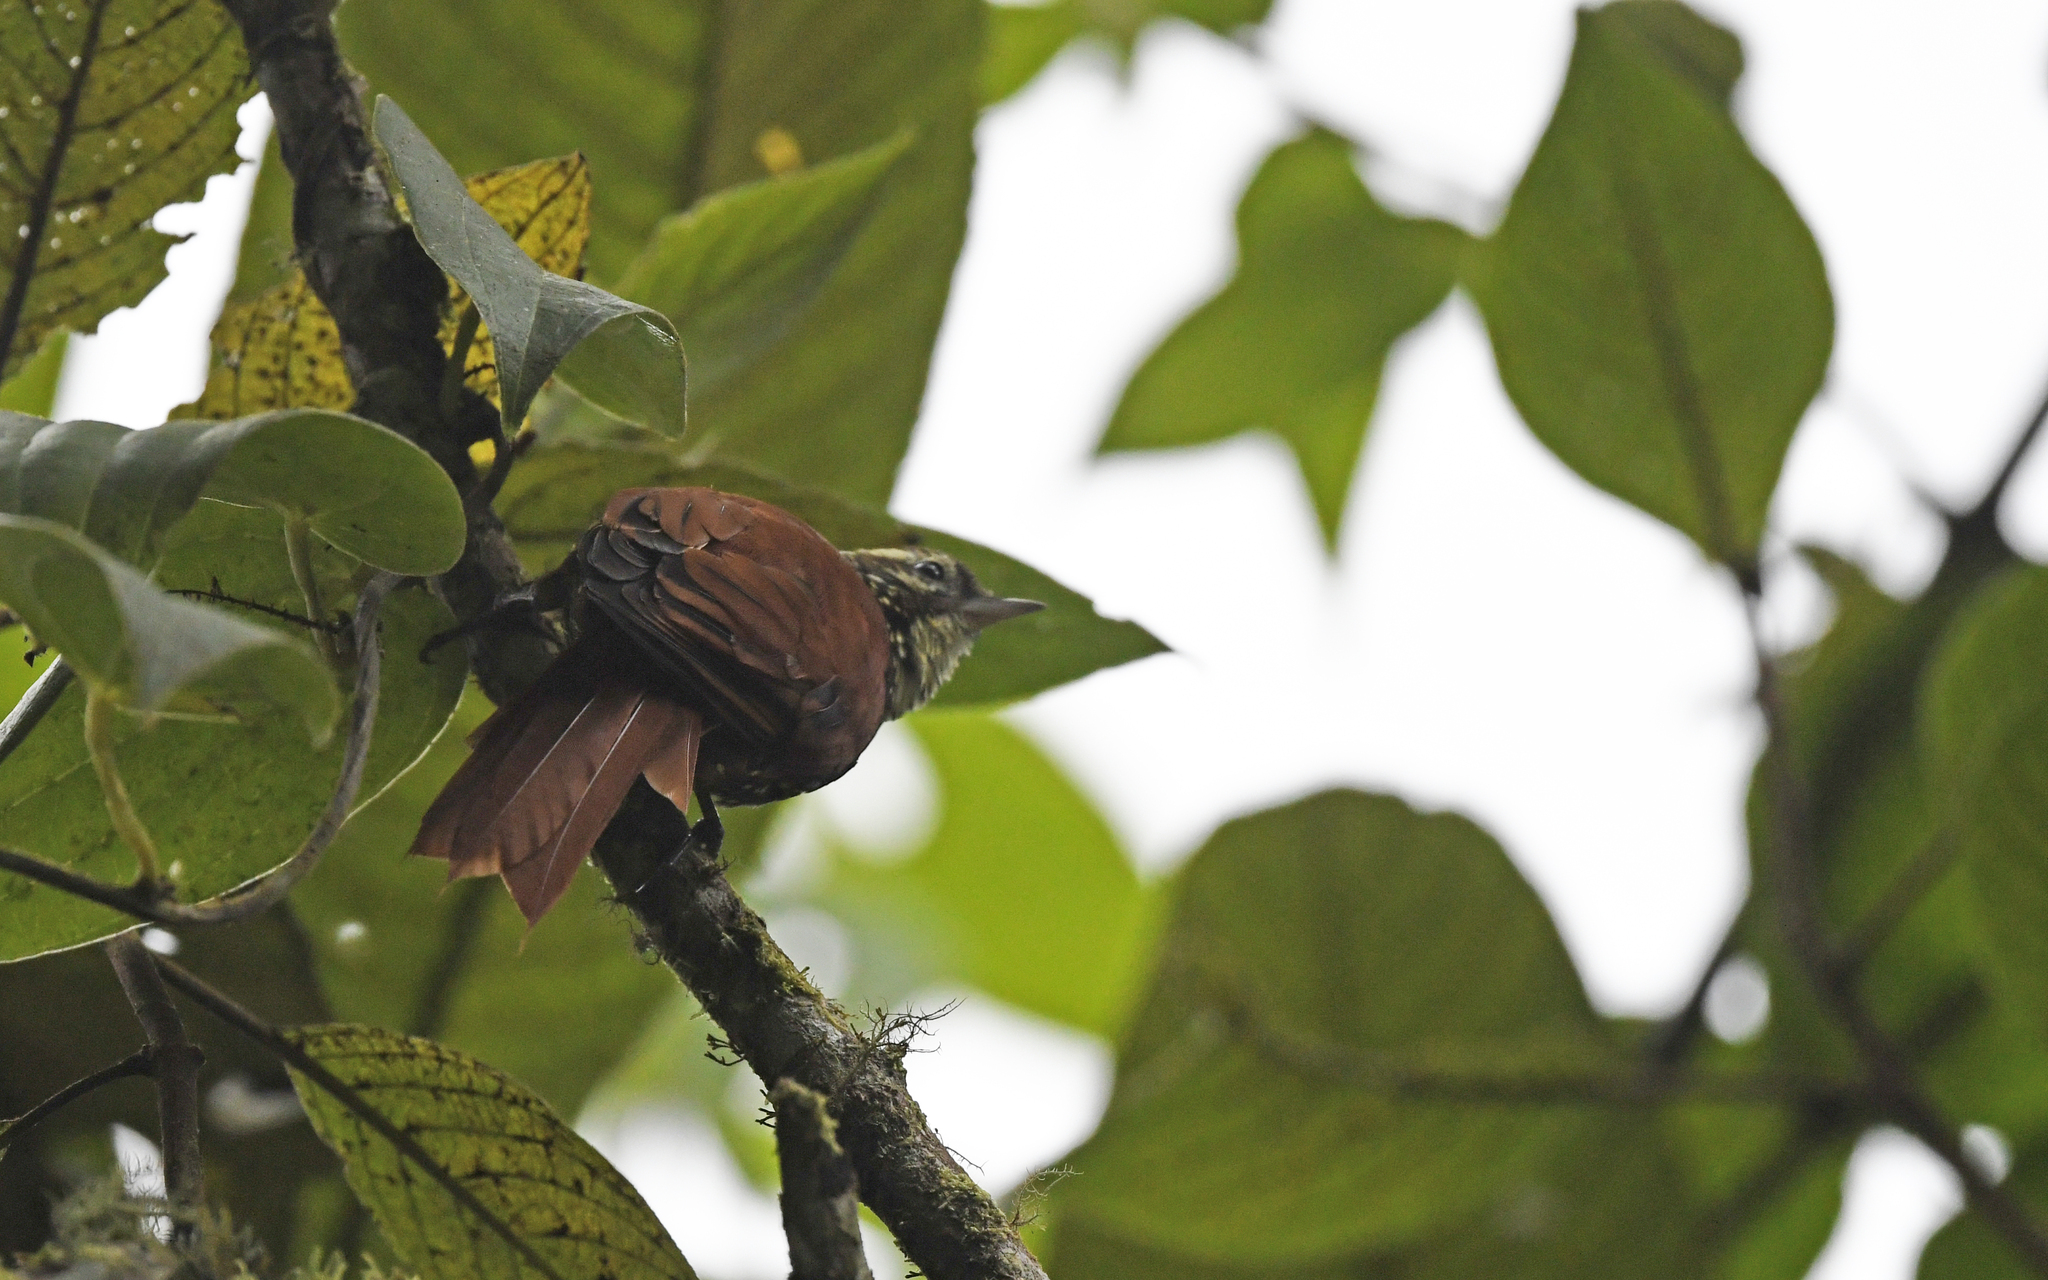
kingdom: Animalia
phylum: Chordata
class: Aves
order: Passeriformes
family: Furnariidae
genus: Margarornis
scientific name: Margarornis squamiger
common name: Pearled treerunner
